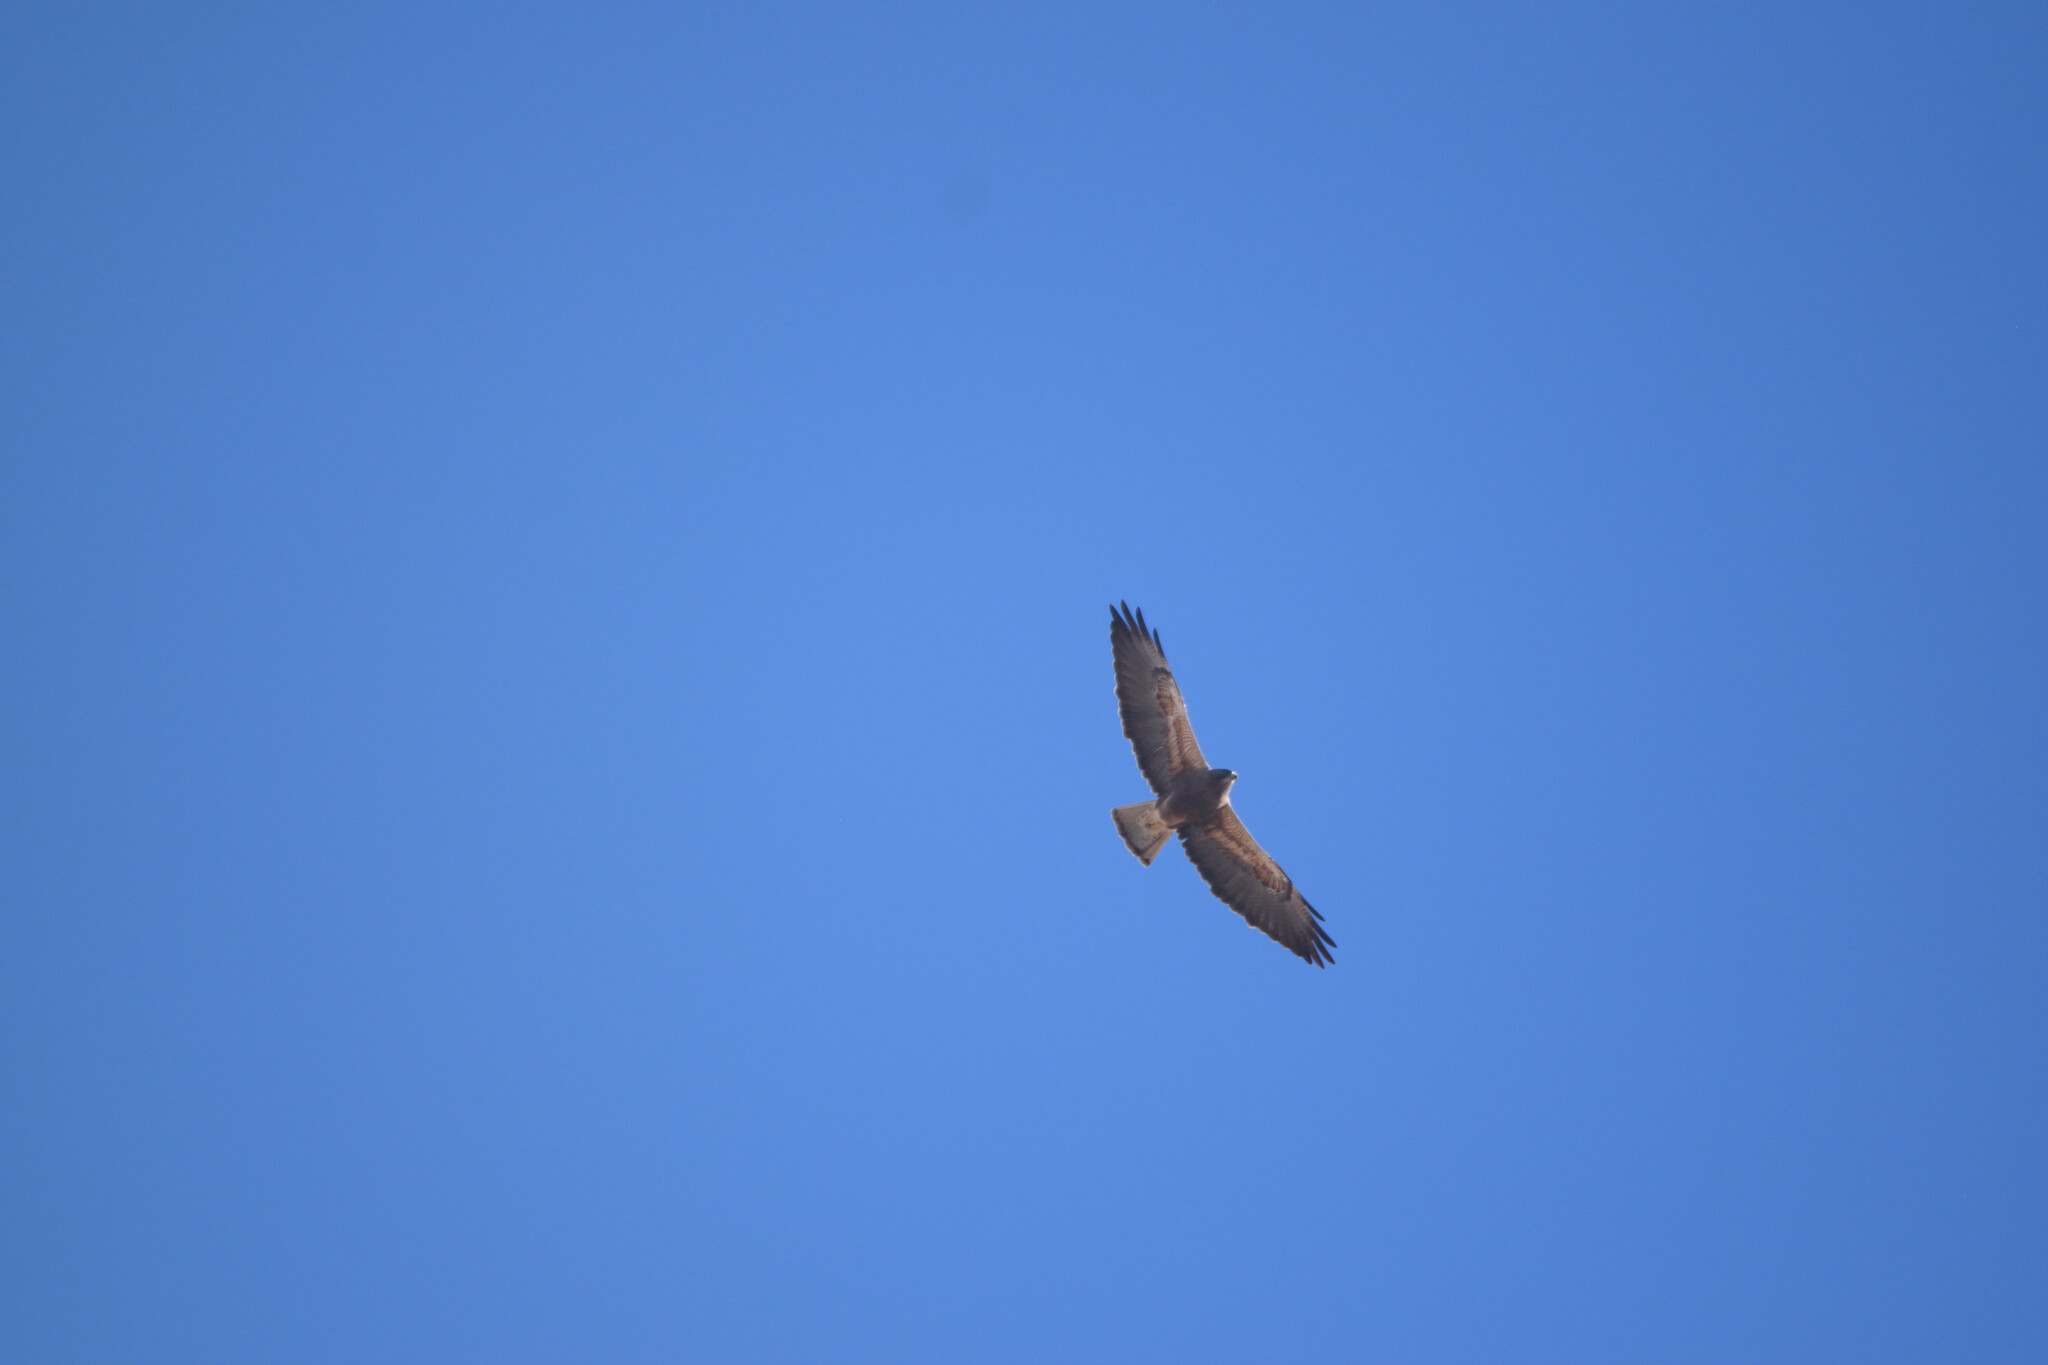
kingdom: Animalia
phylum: Chordata
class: Aves
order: Accipitriformes
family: Accipitridae
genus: Buteo
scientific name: Buteo jamaicensis
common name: Red-tailed hawk
